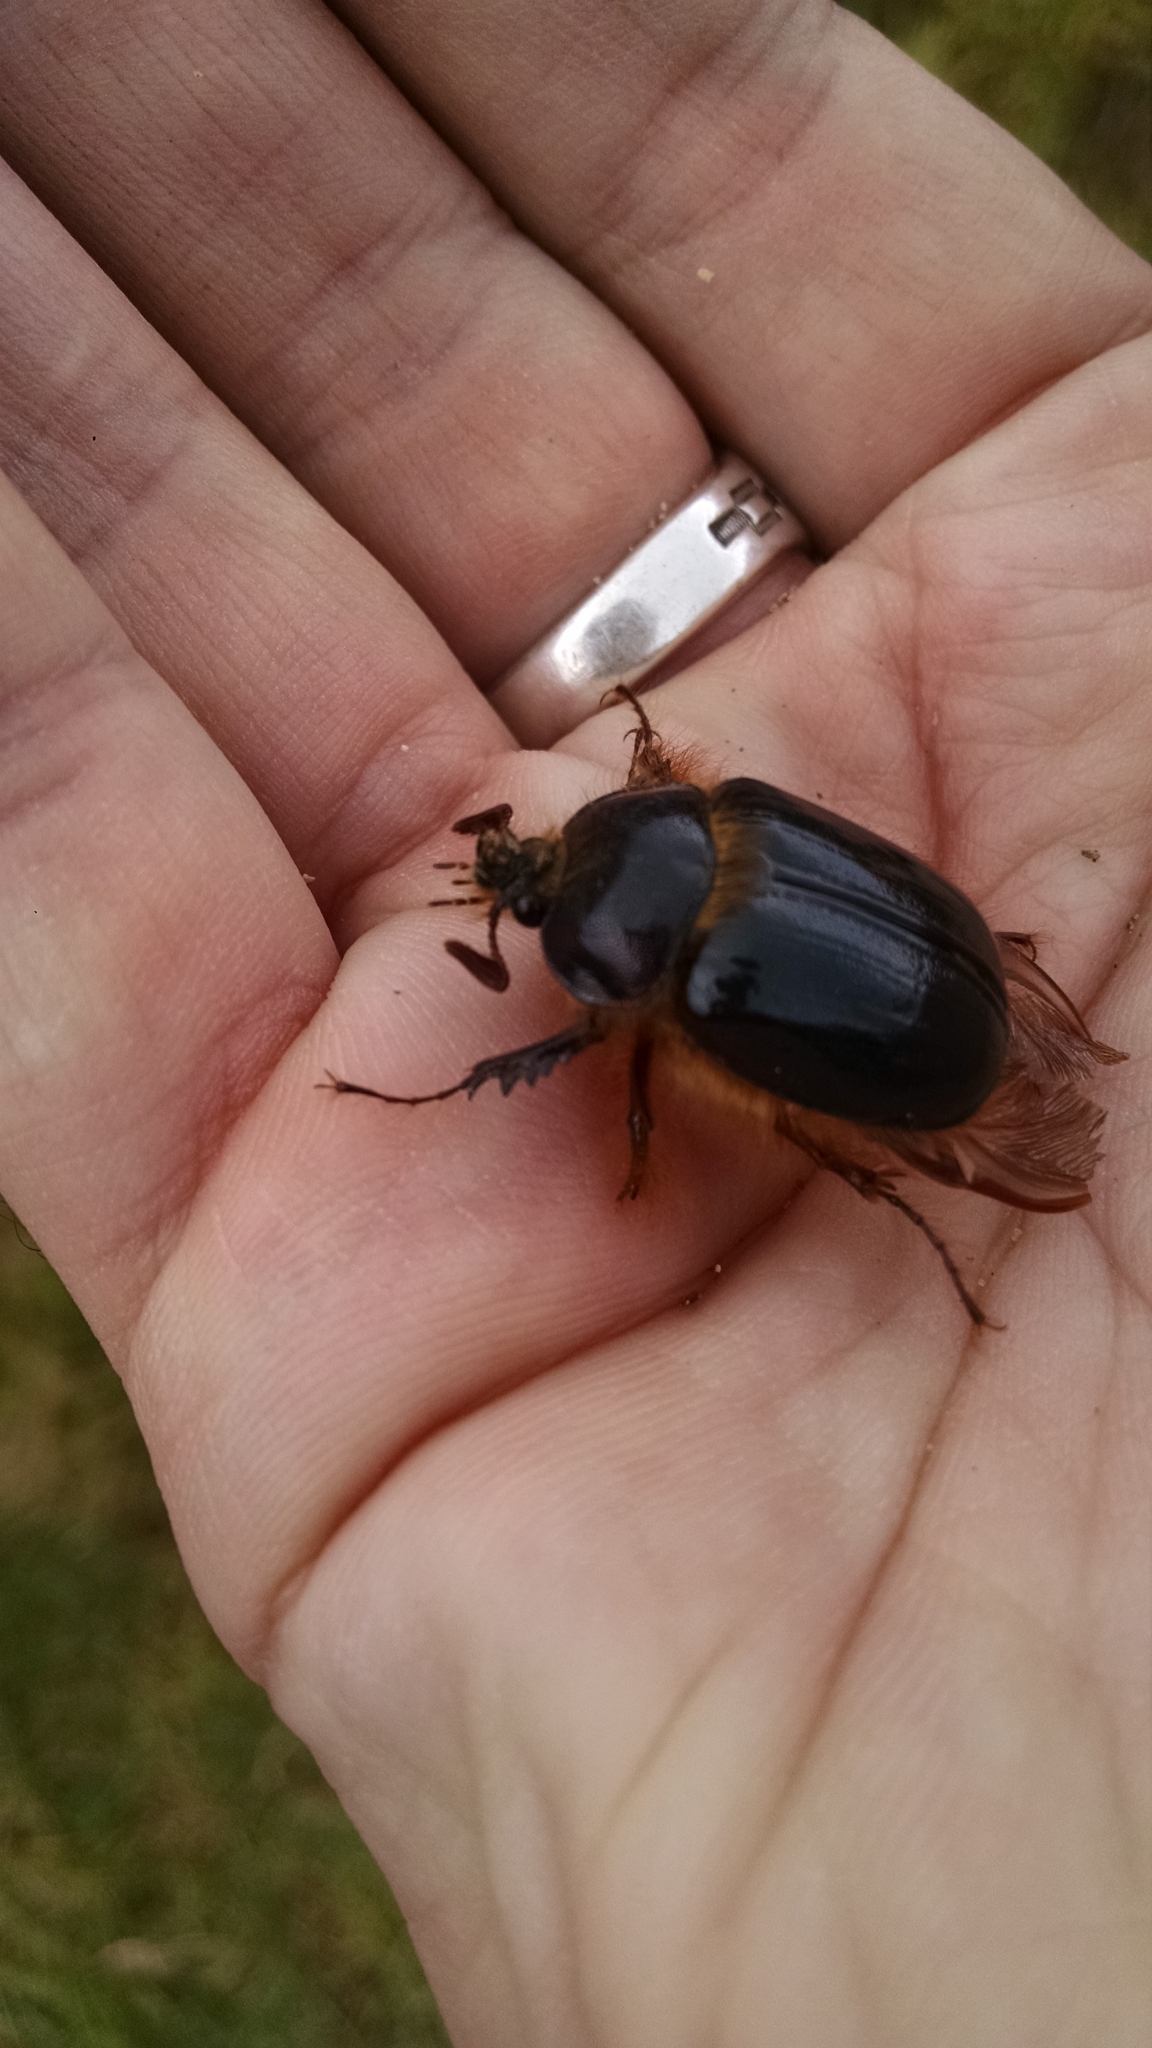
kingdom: Animalia
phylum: Arthropoda
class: Insecta
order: Coleoptera
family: Pleocomidae
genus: Pleocoma
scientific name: Pleocoma behrensi
